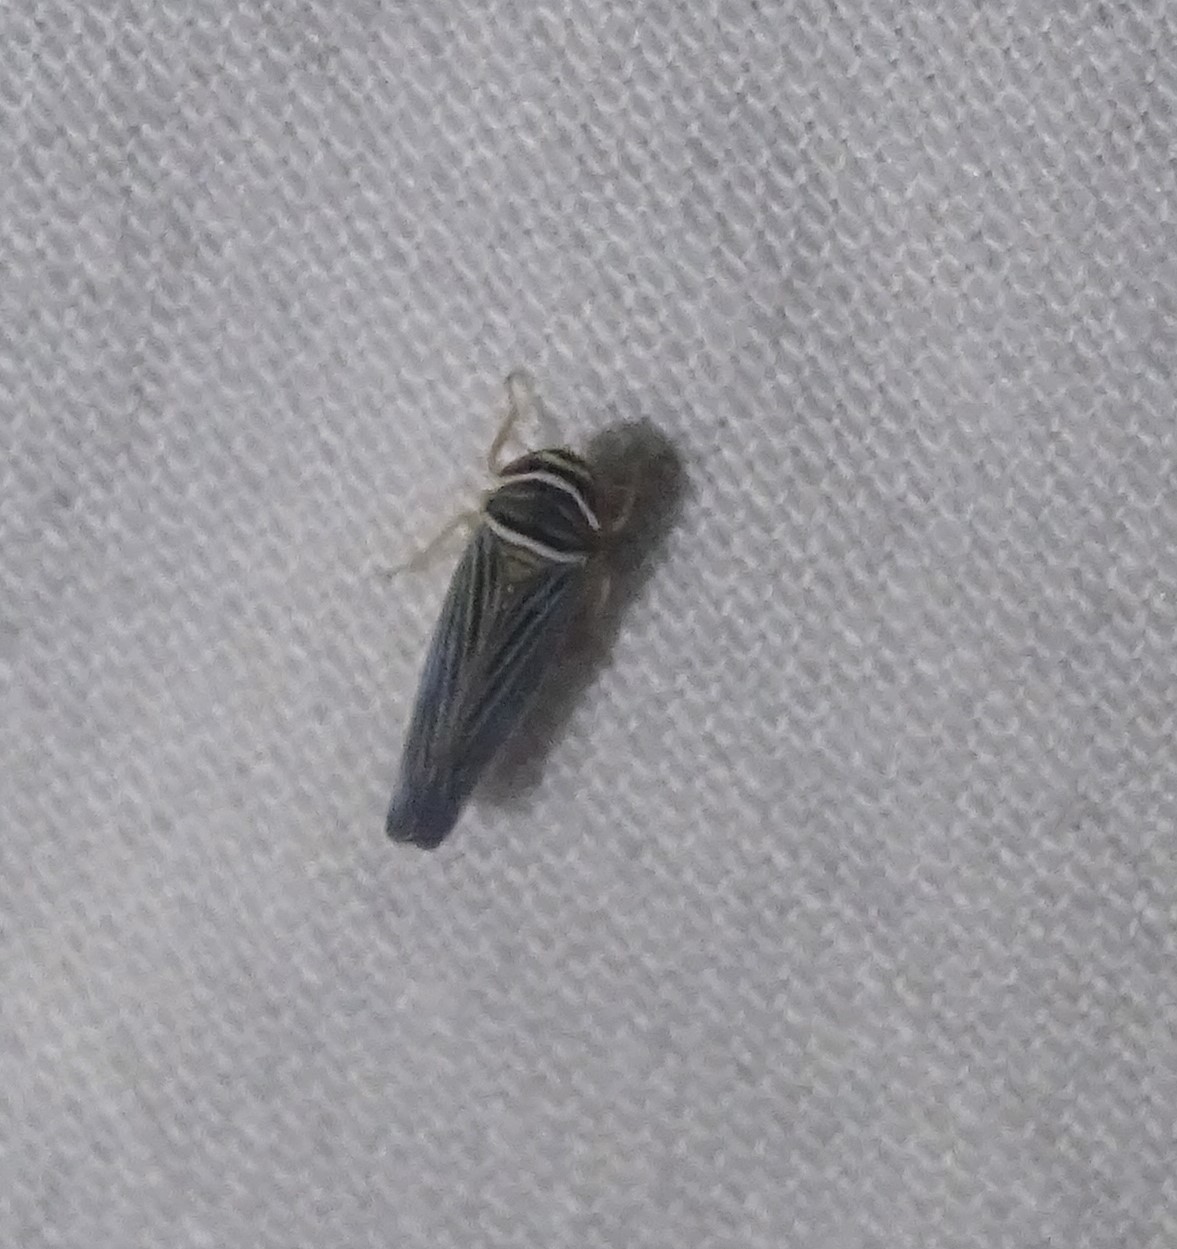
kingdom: Animalia
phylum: Arthropoda
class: Insecta
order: Hemiptera
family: Cicadellidae
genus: Tylozygus
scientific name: Tylozygus bifidus
